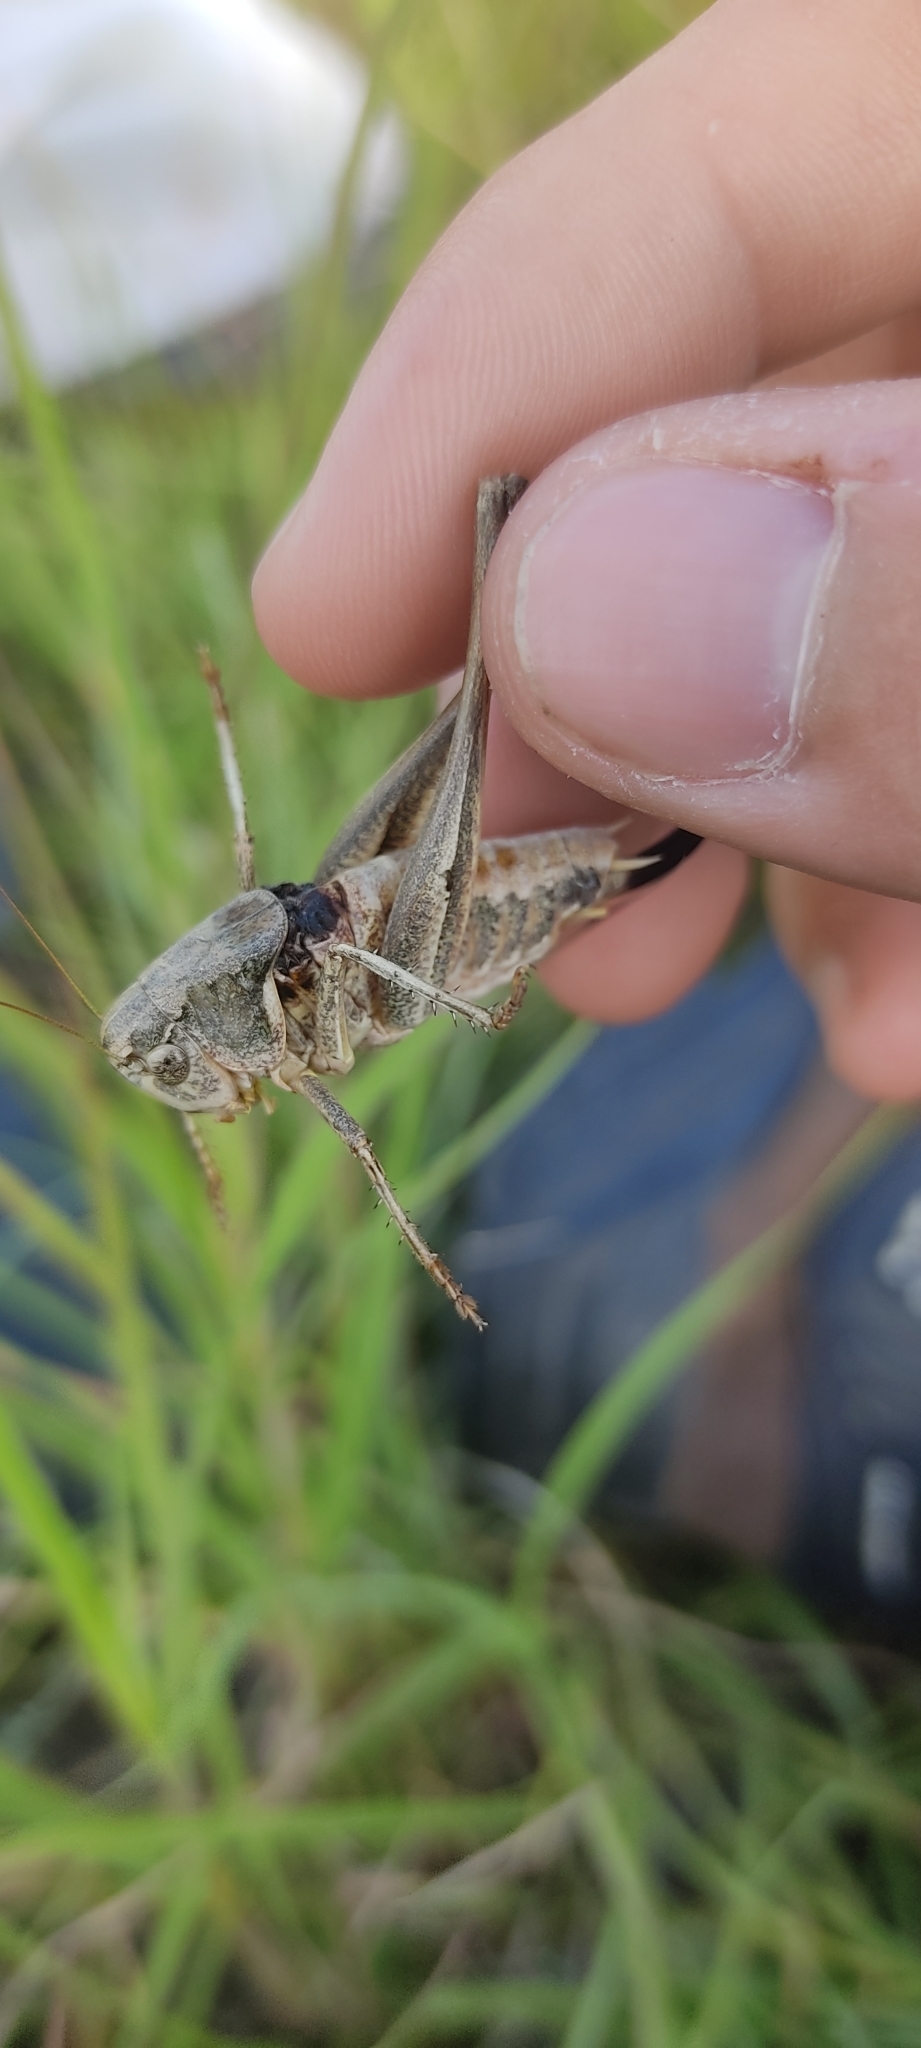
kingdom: Animalia
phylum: Arthropoda
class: Insecta
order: Orthoptera
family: Tettigoniidae
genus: Platycleis
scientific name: Platycleis falx
